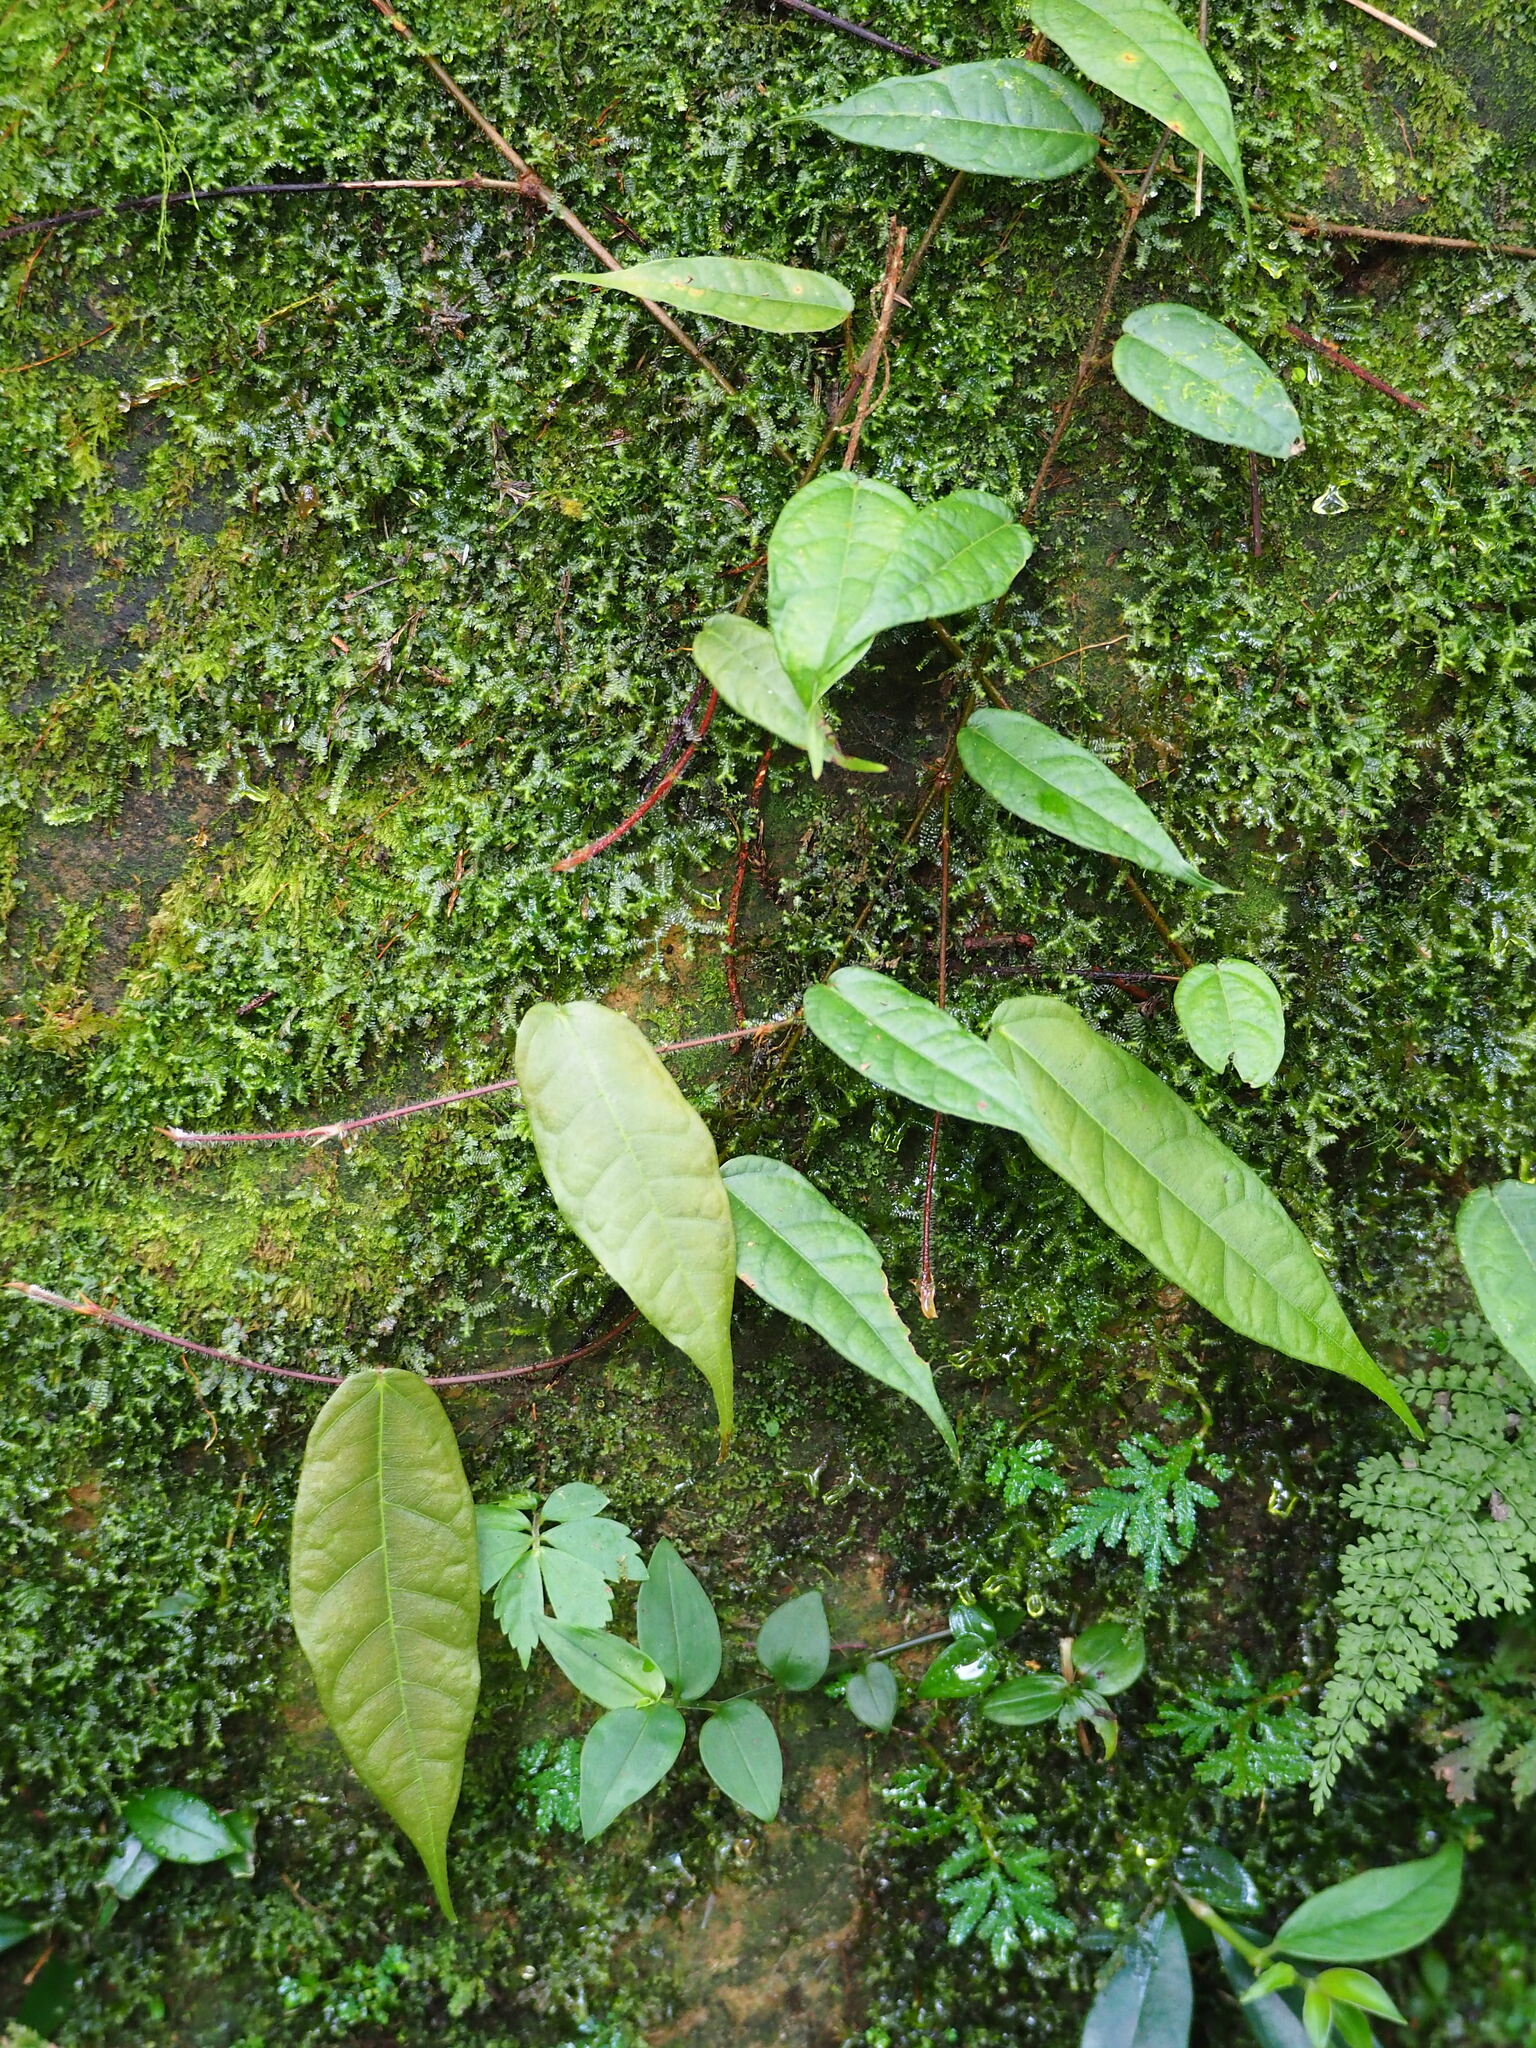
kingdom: Plantae
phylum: Tracheophyta
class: Magnoliopsida
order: Rosales
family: Moraceae
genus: Ficus
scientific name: Ficus sarmentosa
